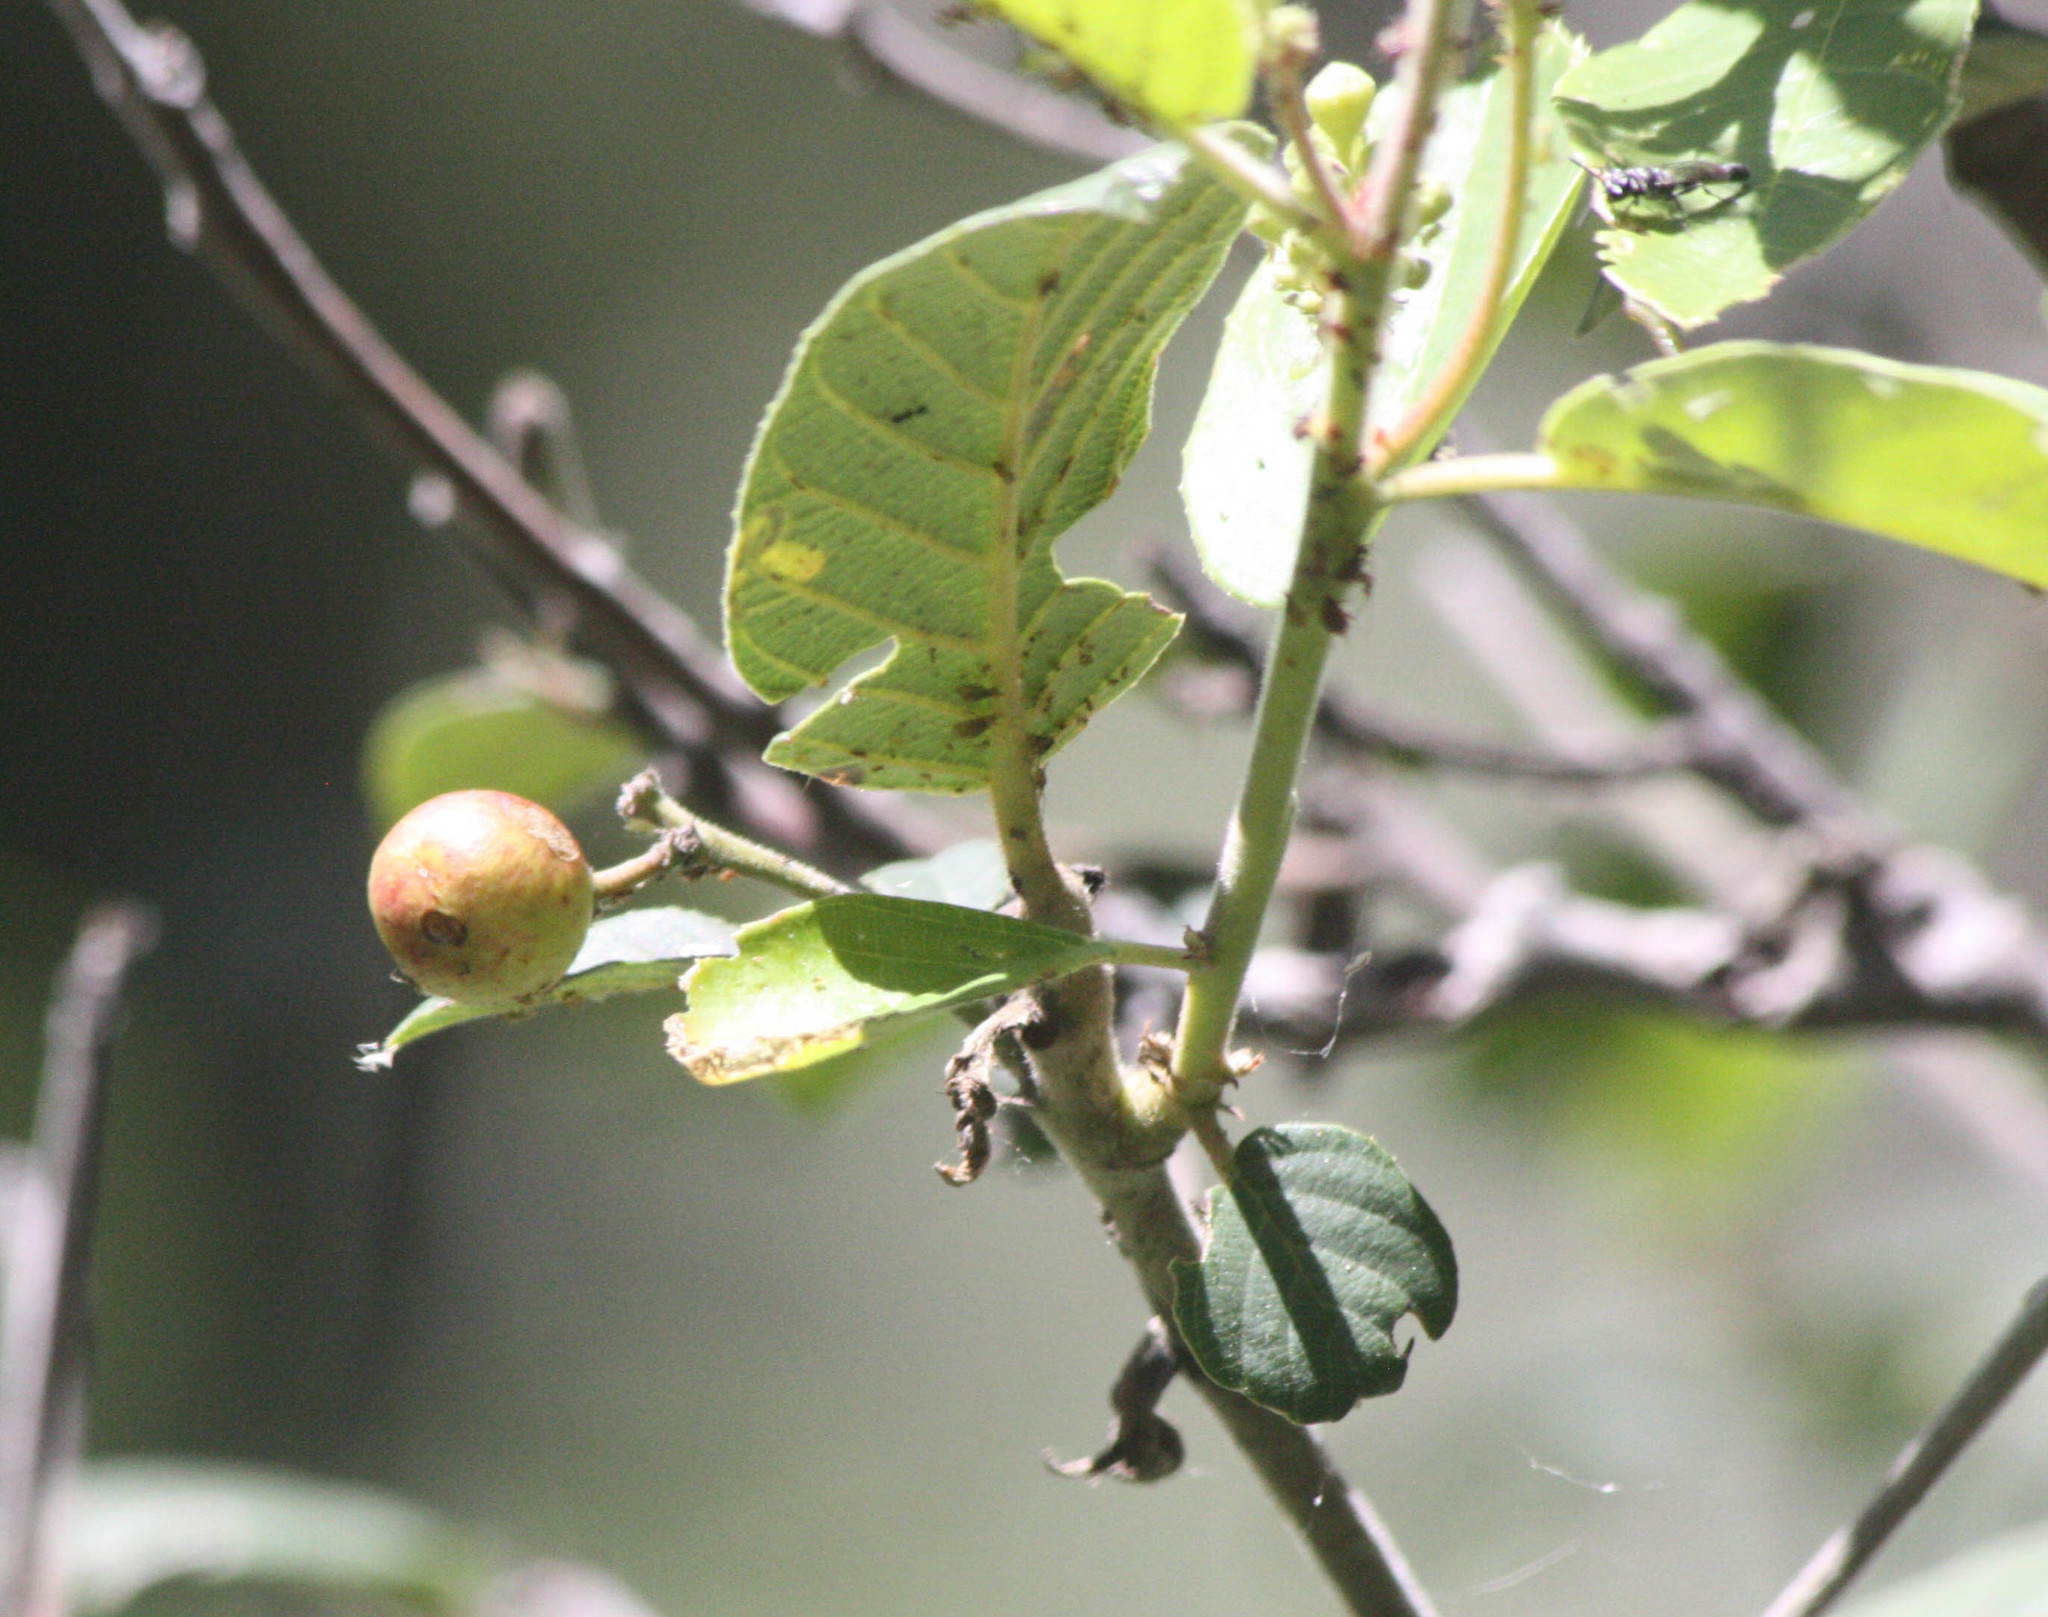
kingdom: Plantae
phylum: Tracheophyta
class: Magnoliopsida
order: Rosales
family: Rhamnaceae
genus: Frangula
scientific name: Frangula californica
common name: California buckthorn
